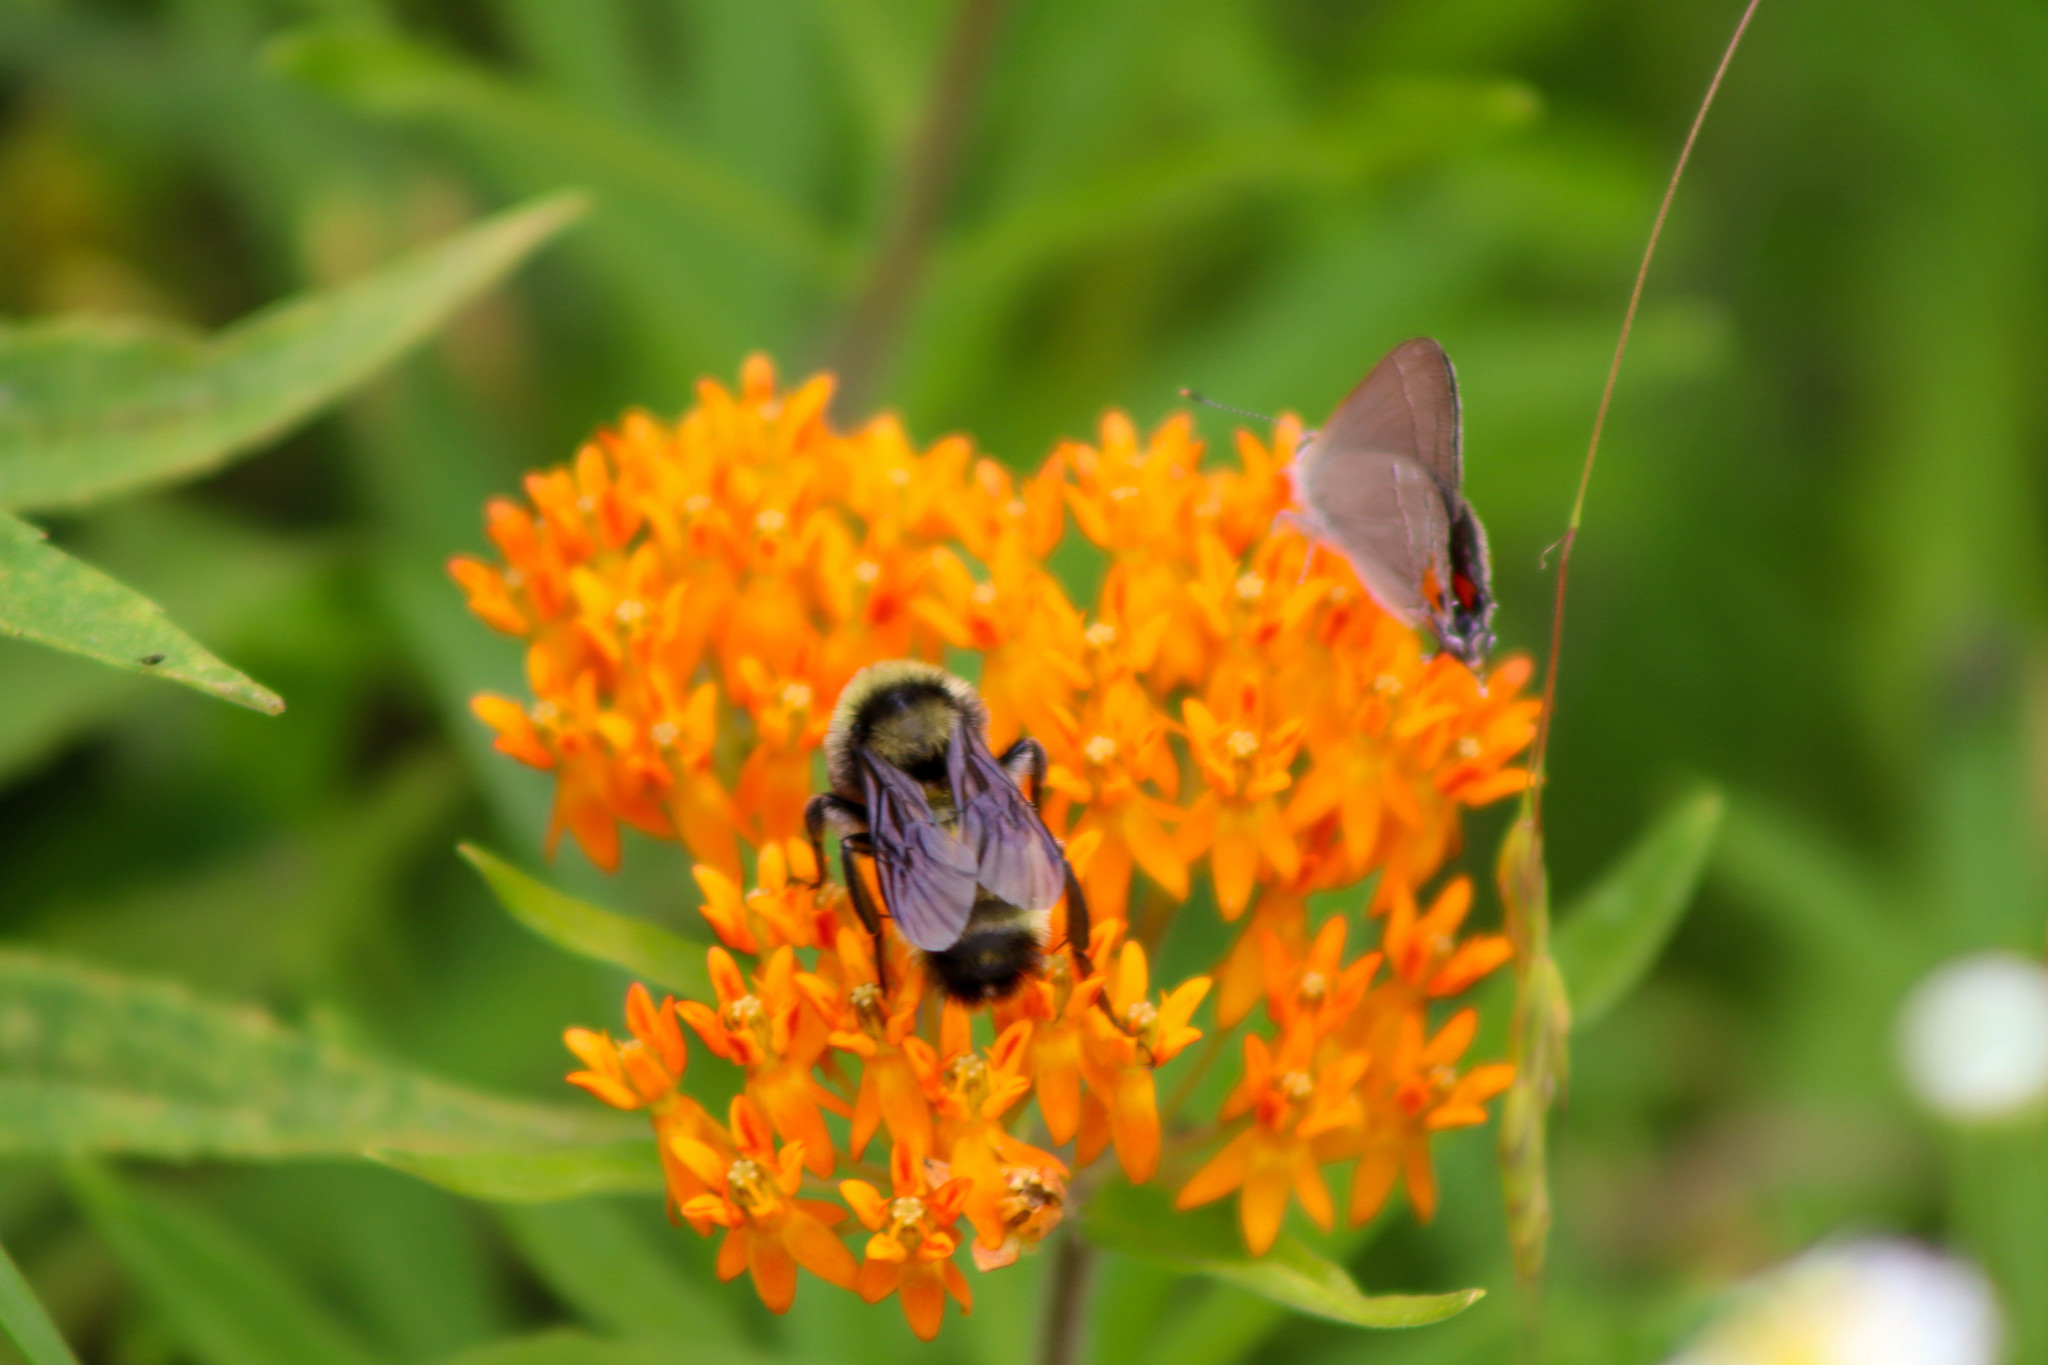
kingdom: Animalia
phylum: Arthropoda
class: Insecta
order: Hymenoptera
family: Apidae
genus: Bombus
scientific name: Bombus pensylvanicus
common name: Bumble bee
